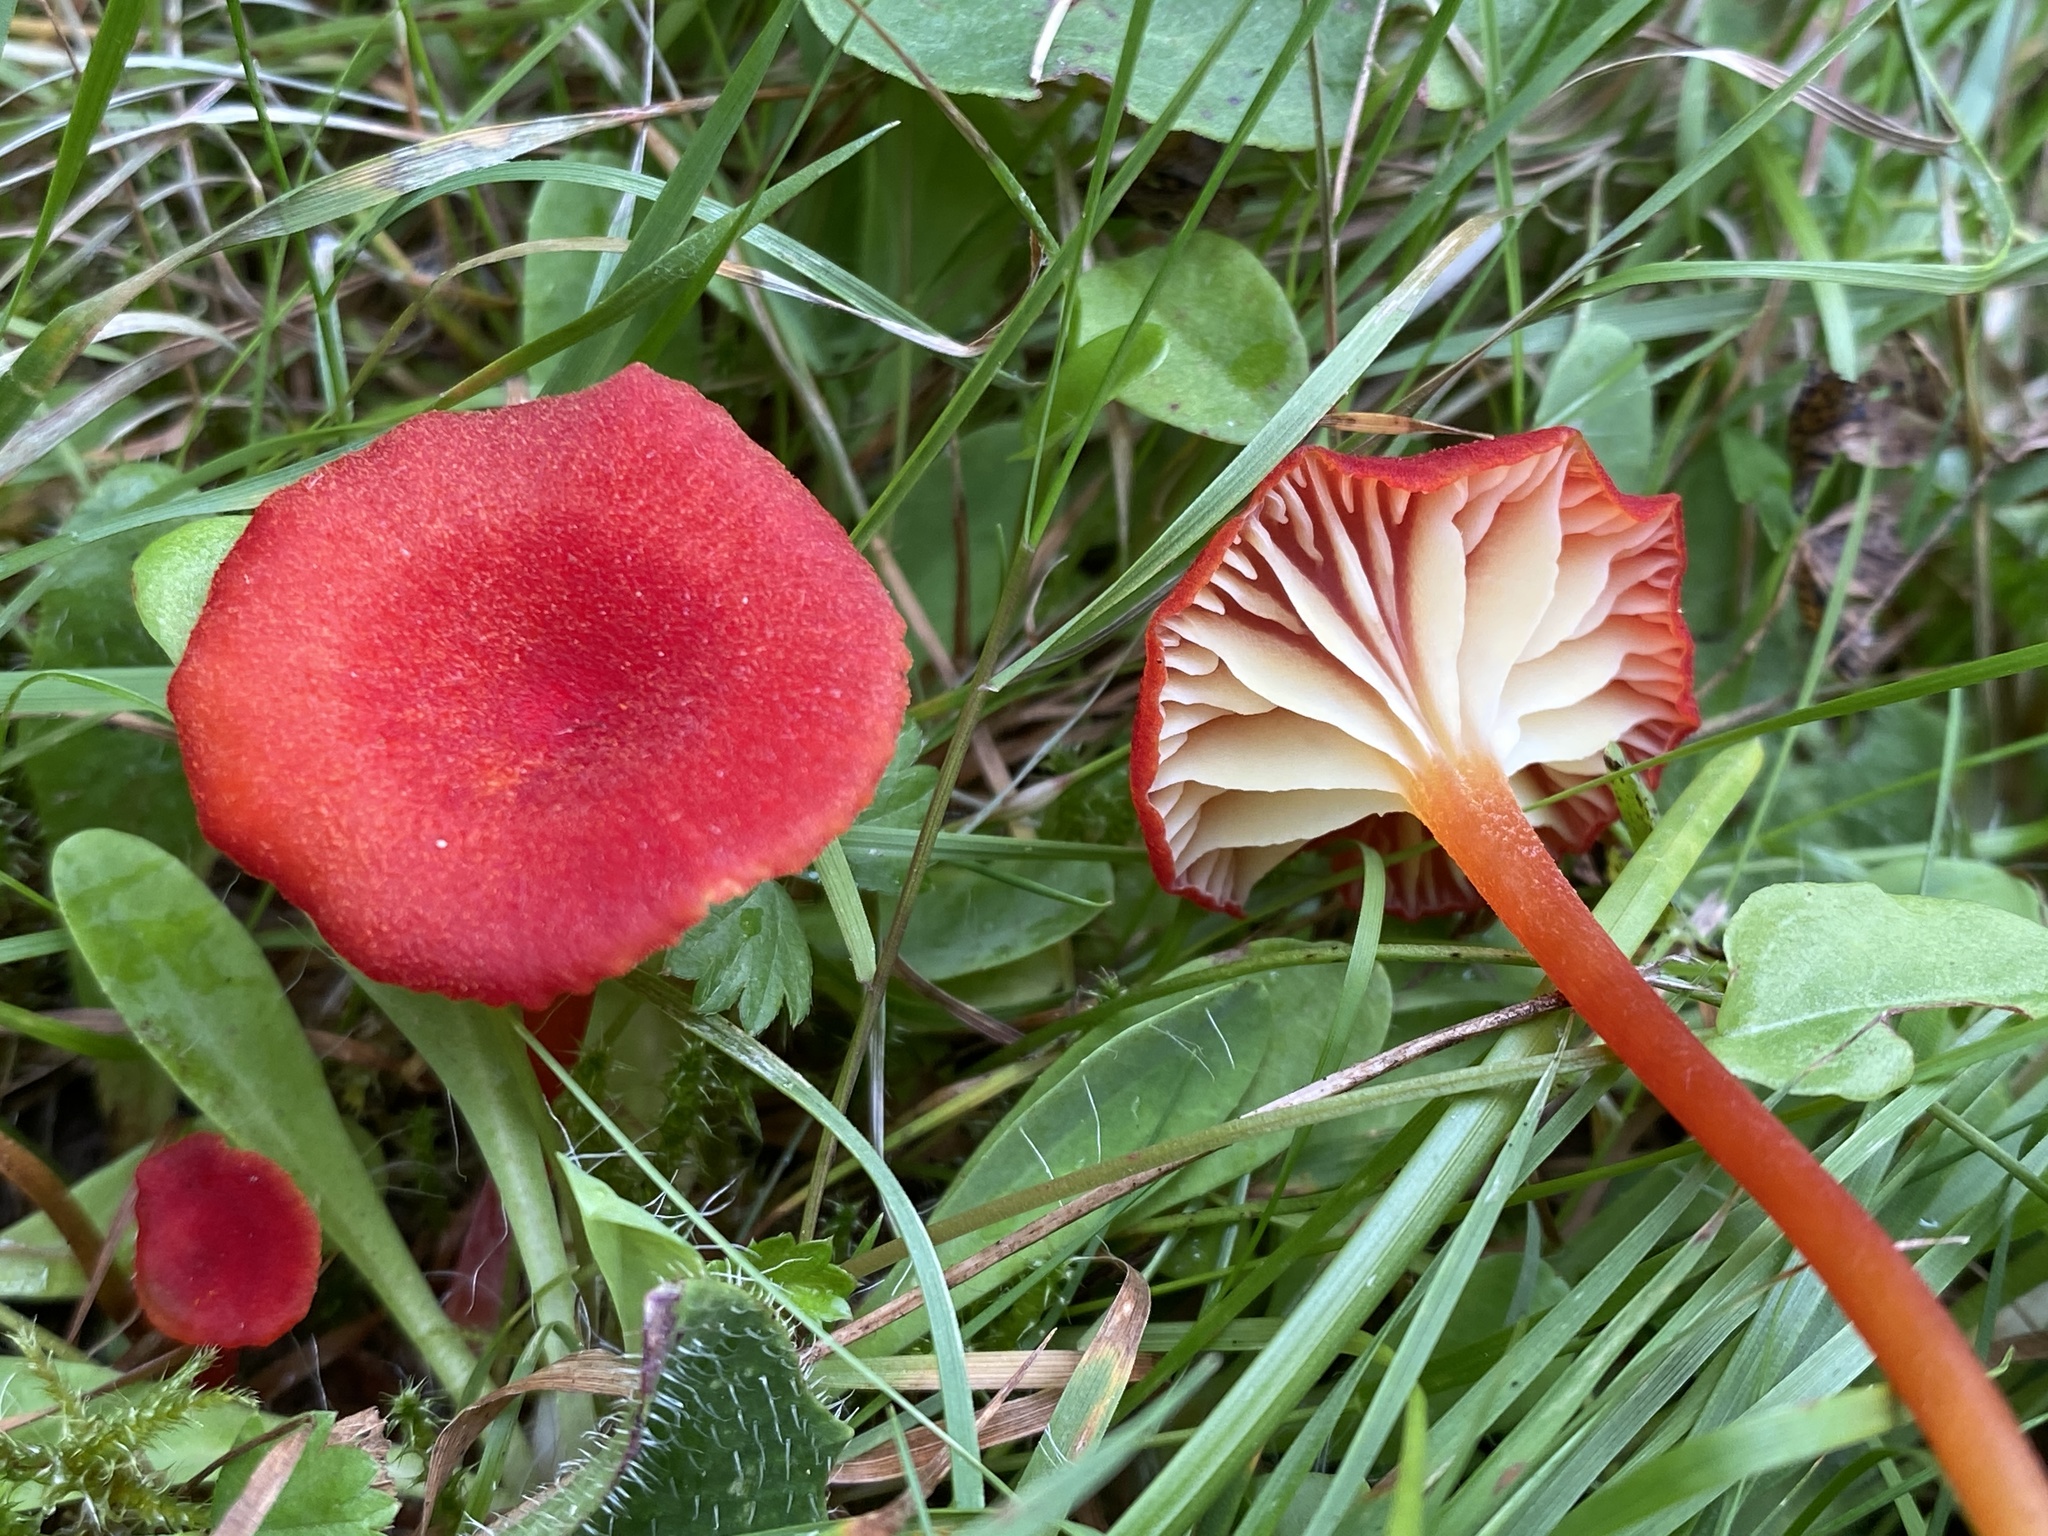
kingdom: Fungi
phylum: Basidiomycota
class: Agaricomycetes
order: Agaricales
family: Hygrophoraceae
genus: Hygrocybe
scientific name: Hygrocybe helobia
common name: Garlic waxcap
